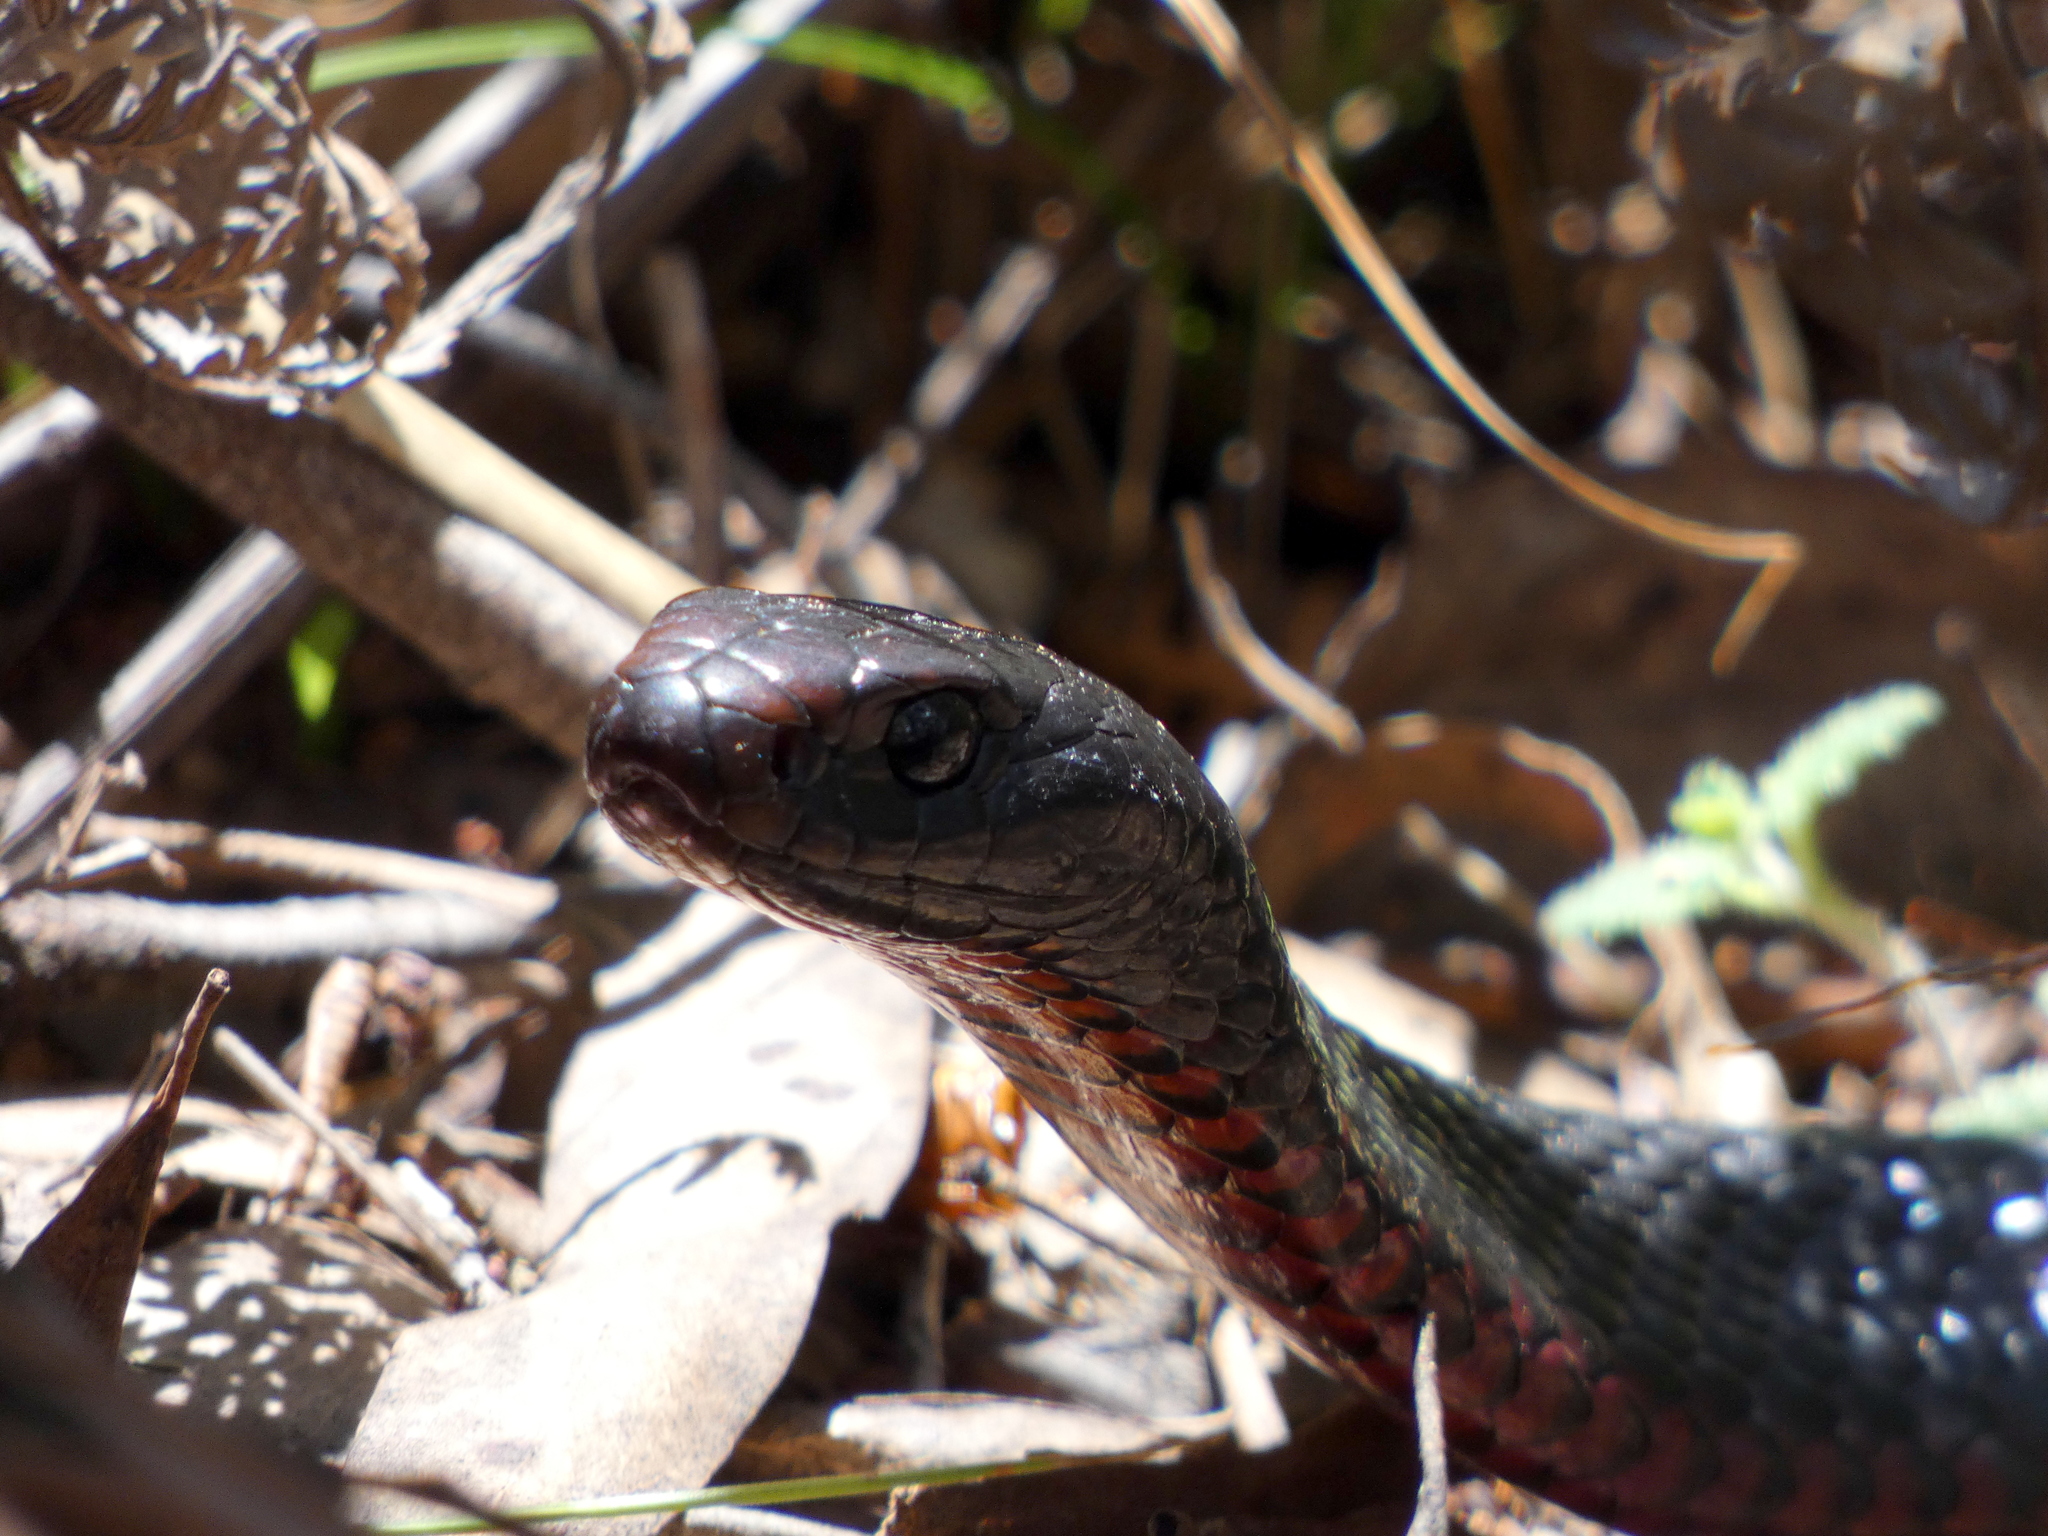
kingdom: Animalia
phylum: Chordata
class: Squamata
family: Elapidae
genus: Pseudechis
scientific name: Pseudechis porphyriacus
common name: Australian black snake
